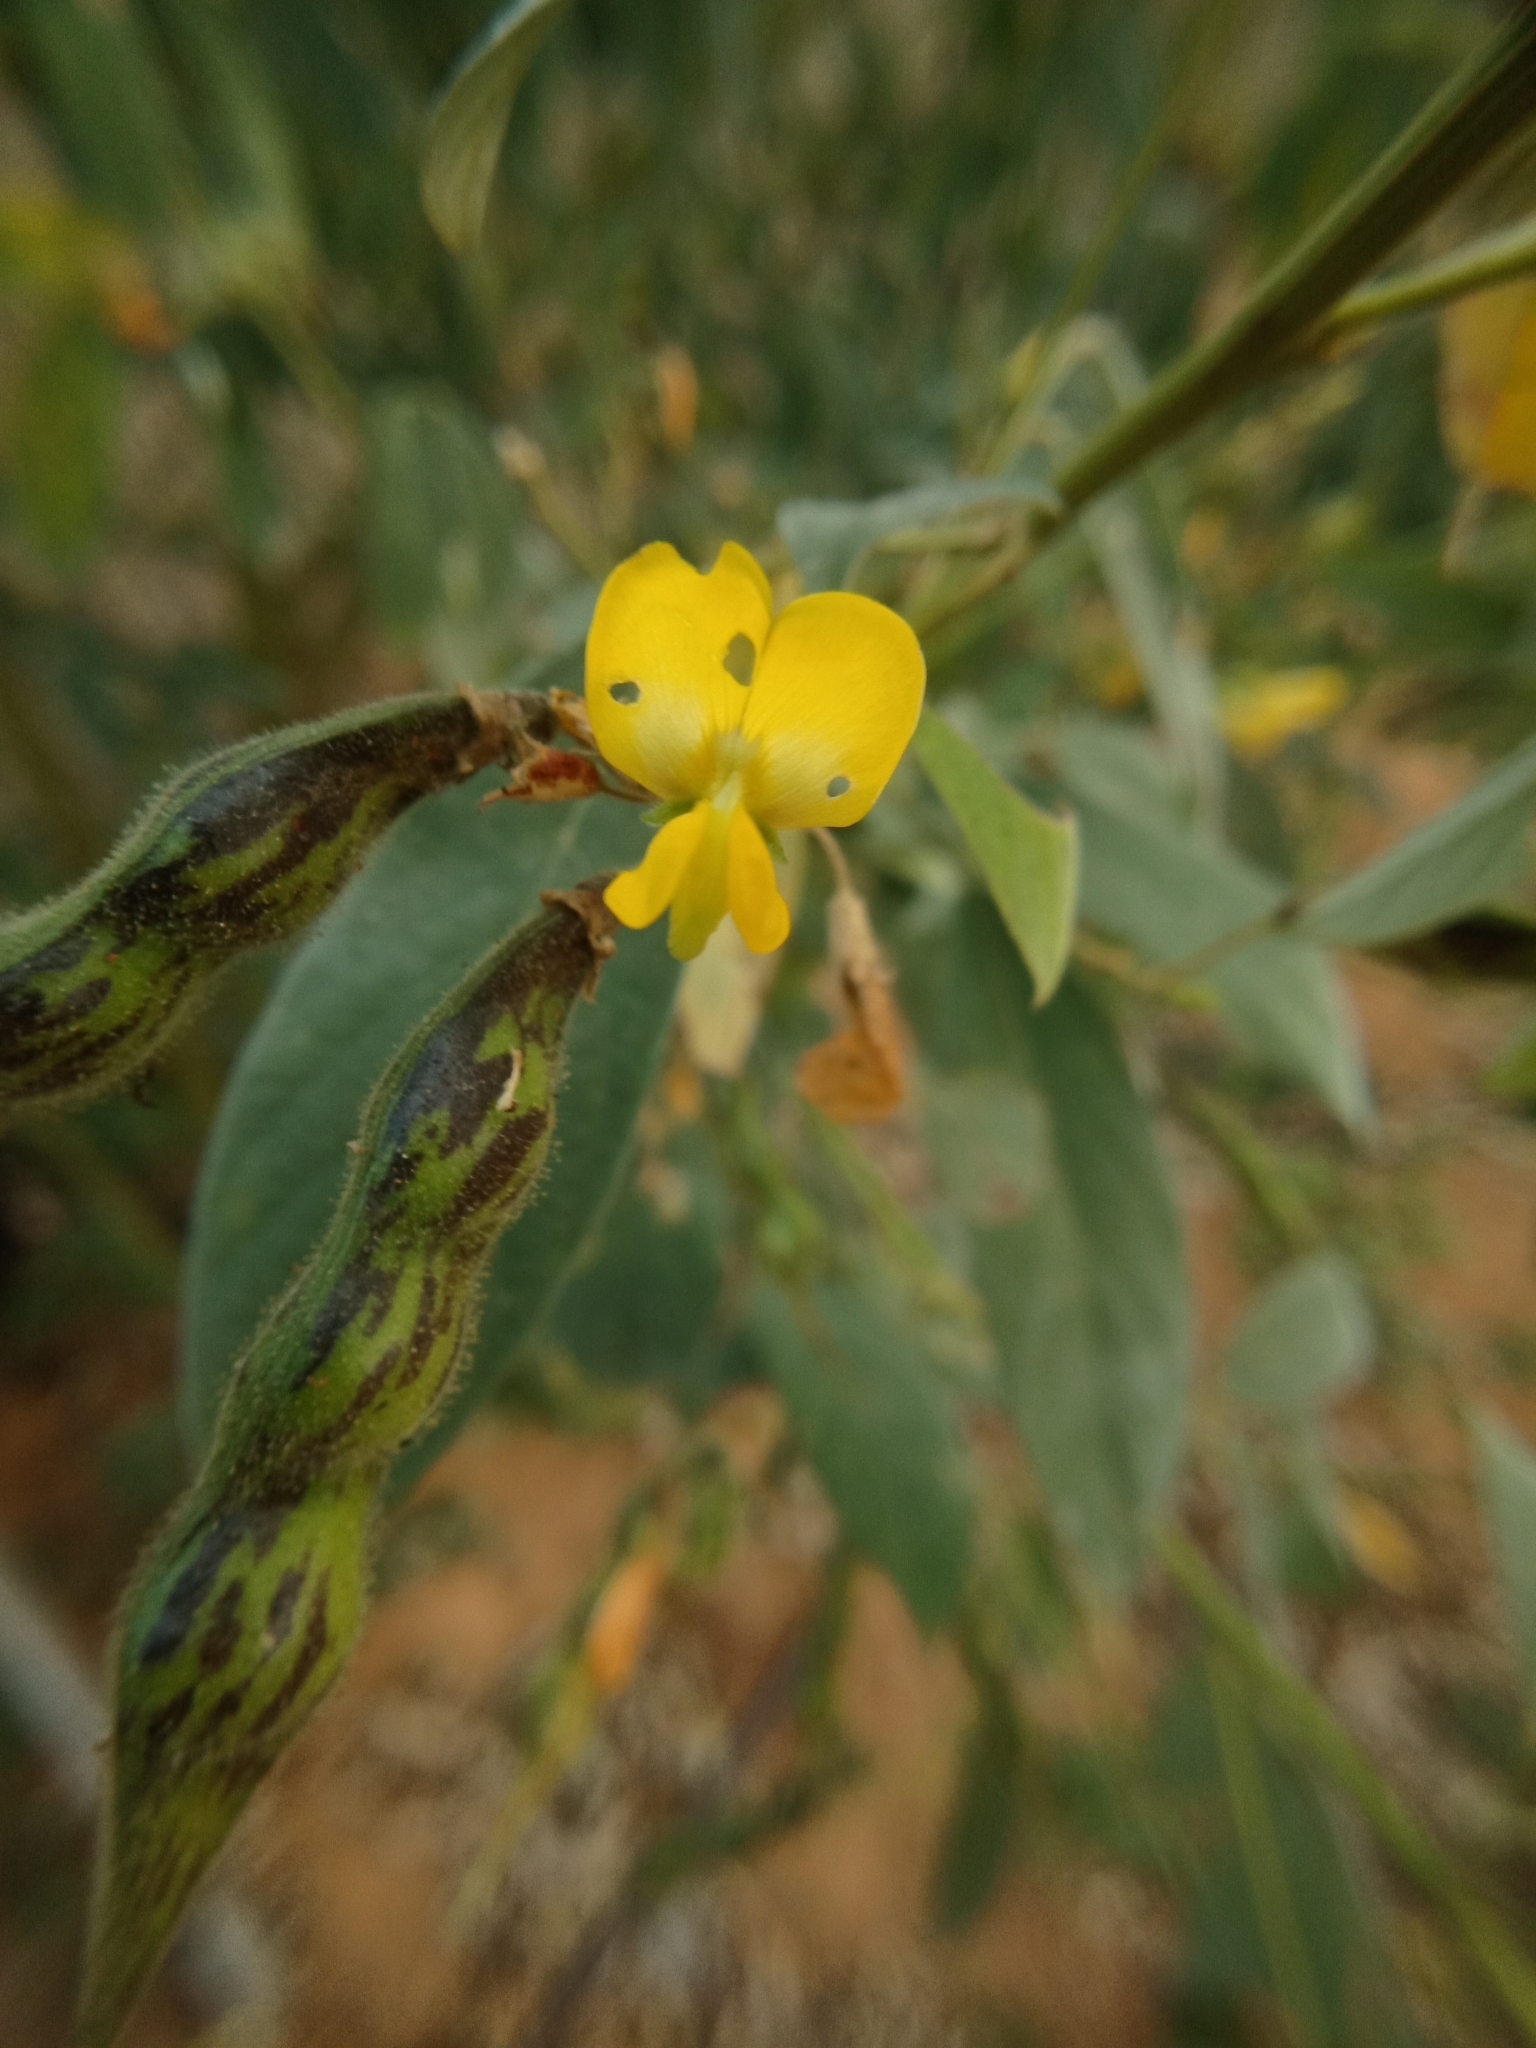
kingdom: Plantae
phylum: Tracheophyta
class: Magnoliopsida
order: Fabales
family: Fabaceae
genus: Cajanus
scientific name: Cajanus cajan
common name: Pigeonpea
